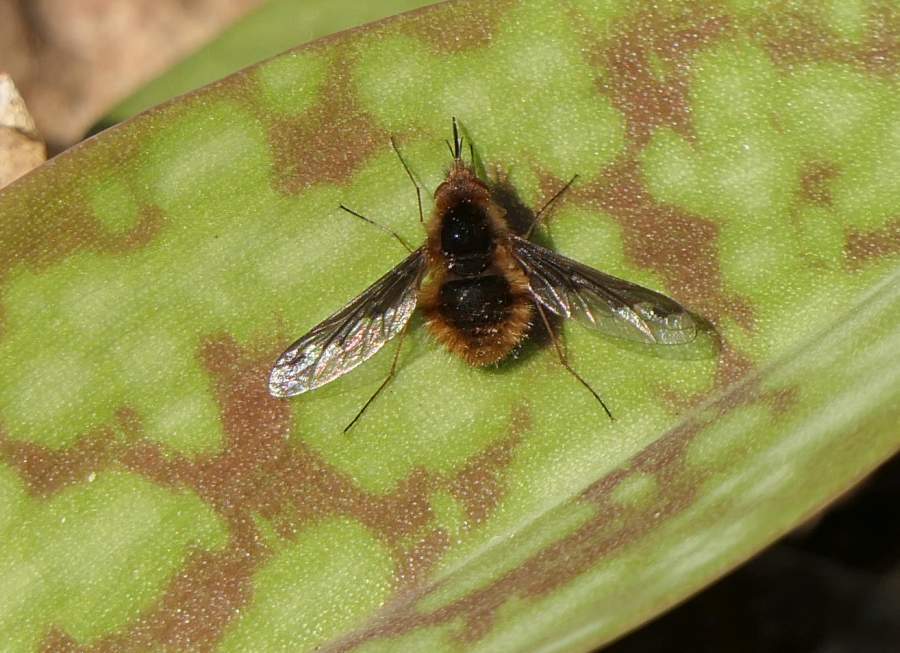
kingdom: Animalia
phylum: Arthropoda
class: Insecta
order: Diptera
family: Bombyliidae
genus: Bombylius
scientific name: Bombylius major
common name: Bee fly
